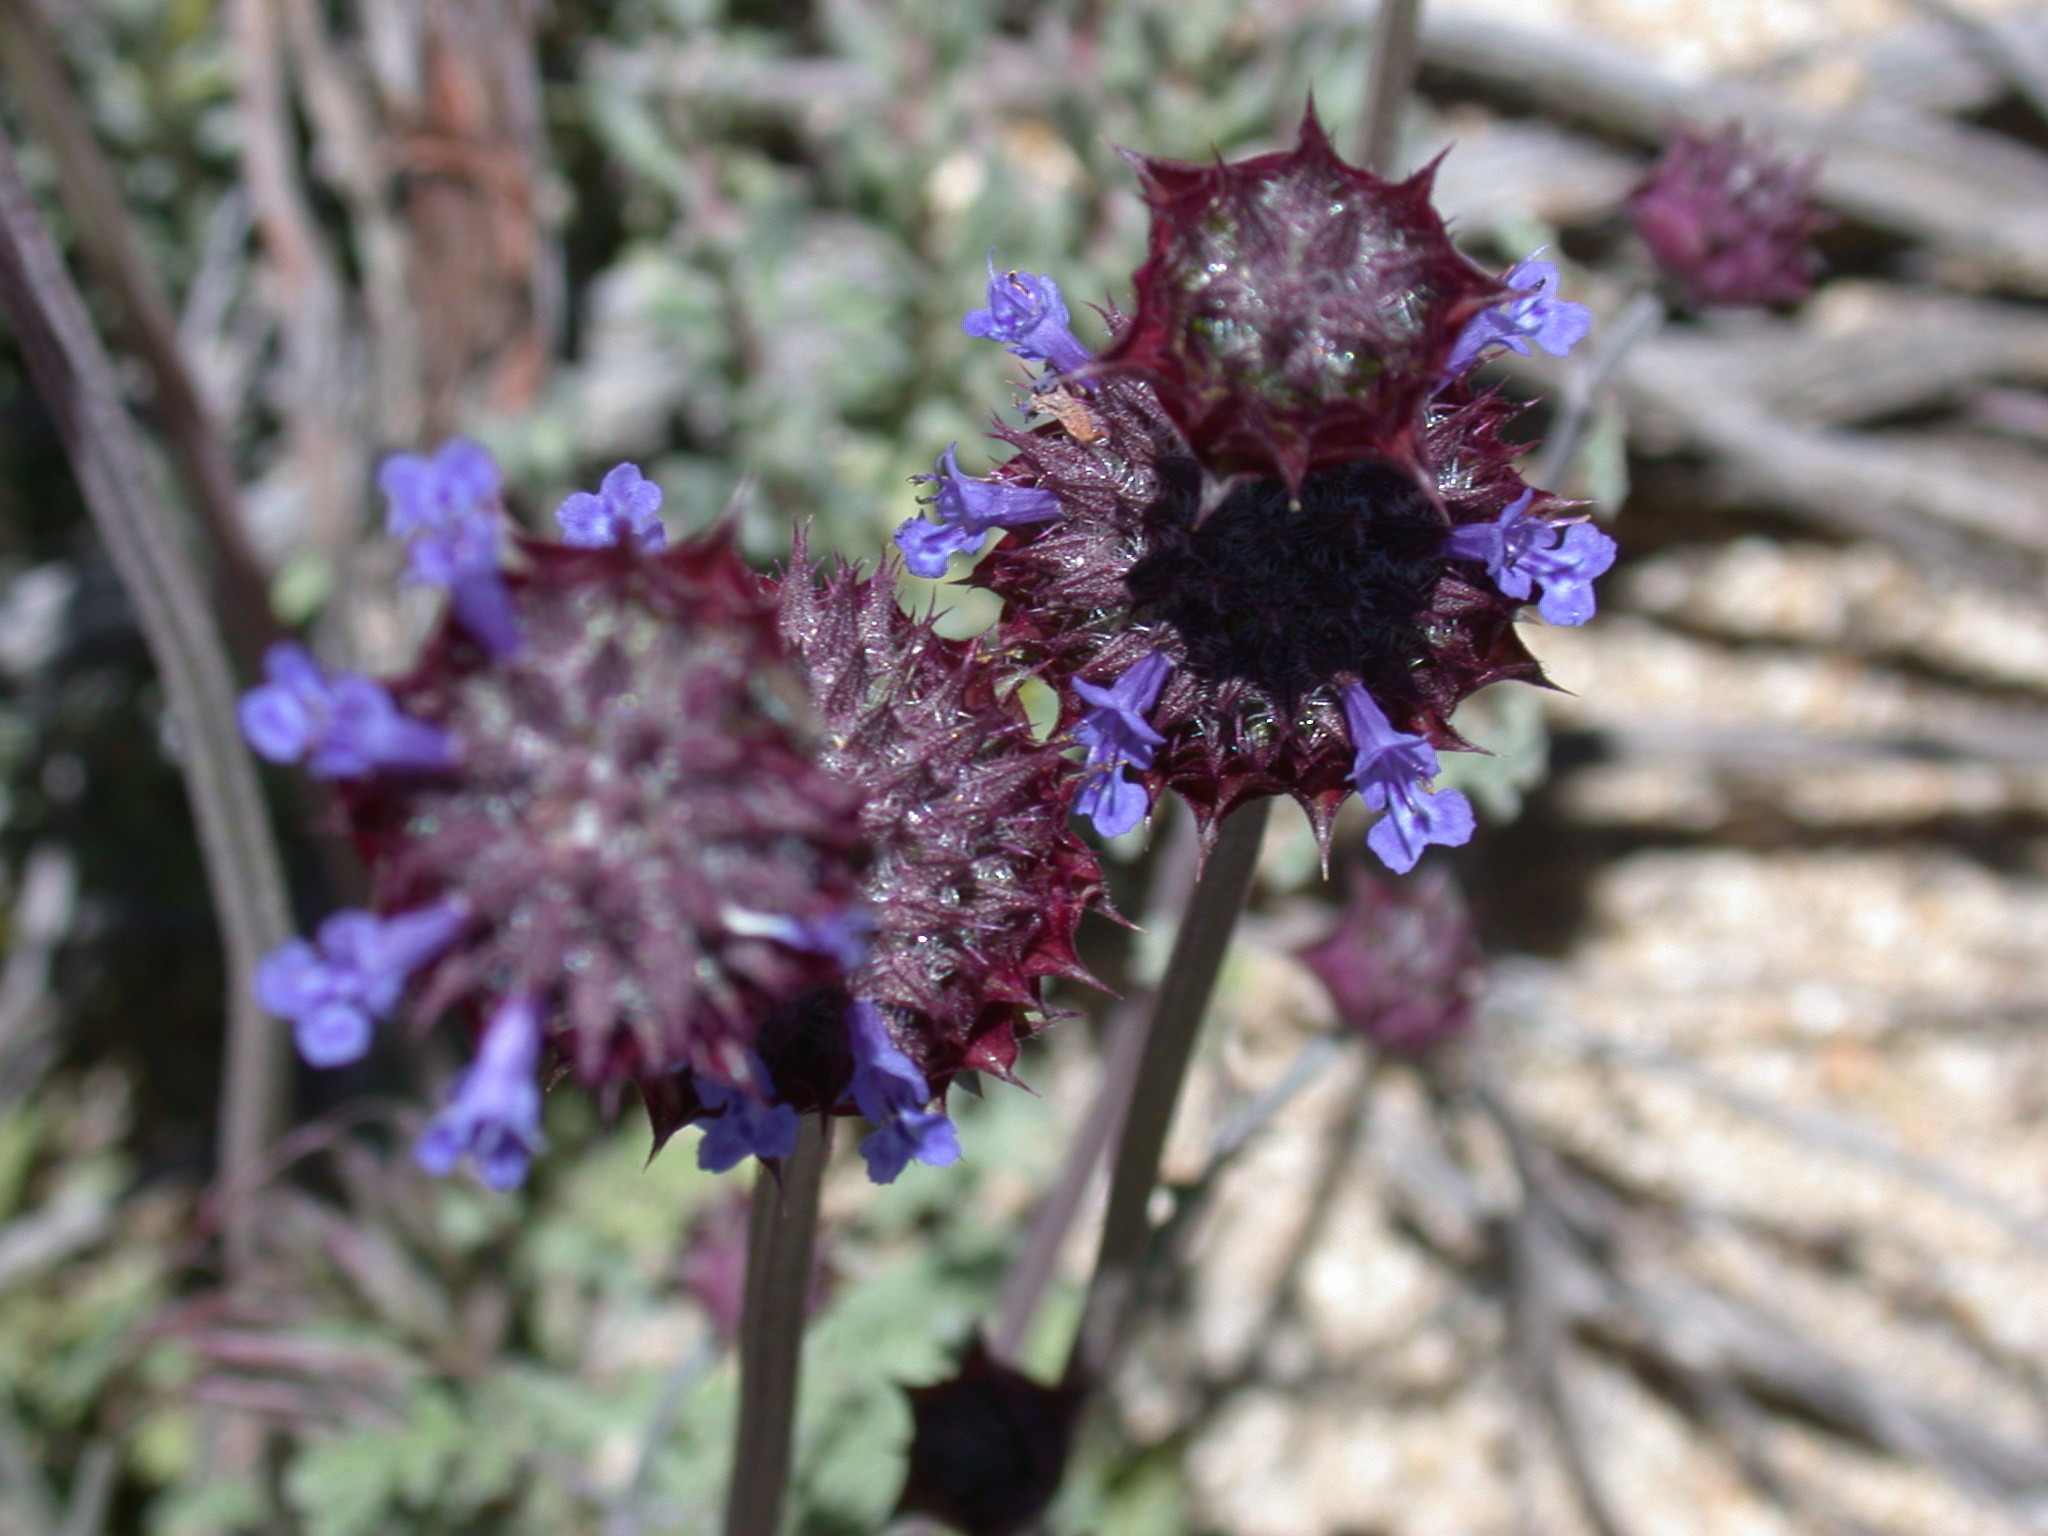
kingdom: Plantae
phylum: Tracheophyta
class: Magnoliopsida
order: Lamiales
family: Lamiaceae
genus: Salvia
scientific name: Salvia columbariae
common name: Chia
